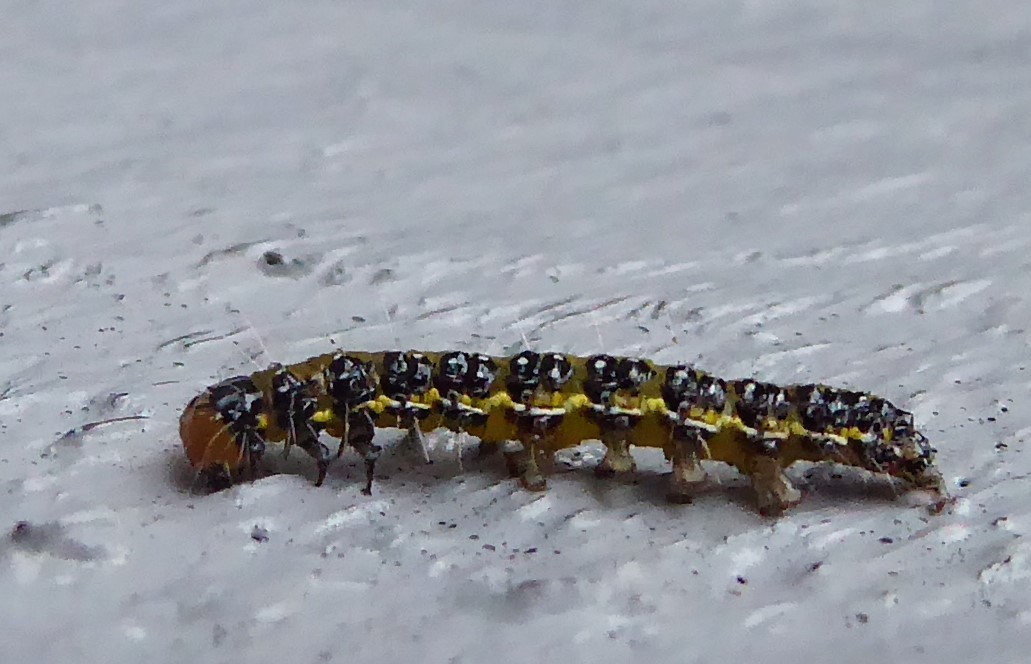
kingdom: Animalia
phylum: Arthropoda
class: Insecta
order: Lepidoptera
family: Crambidae
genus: Uresiphita
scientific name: Uresiphita
